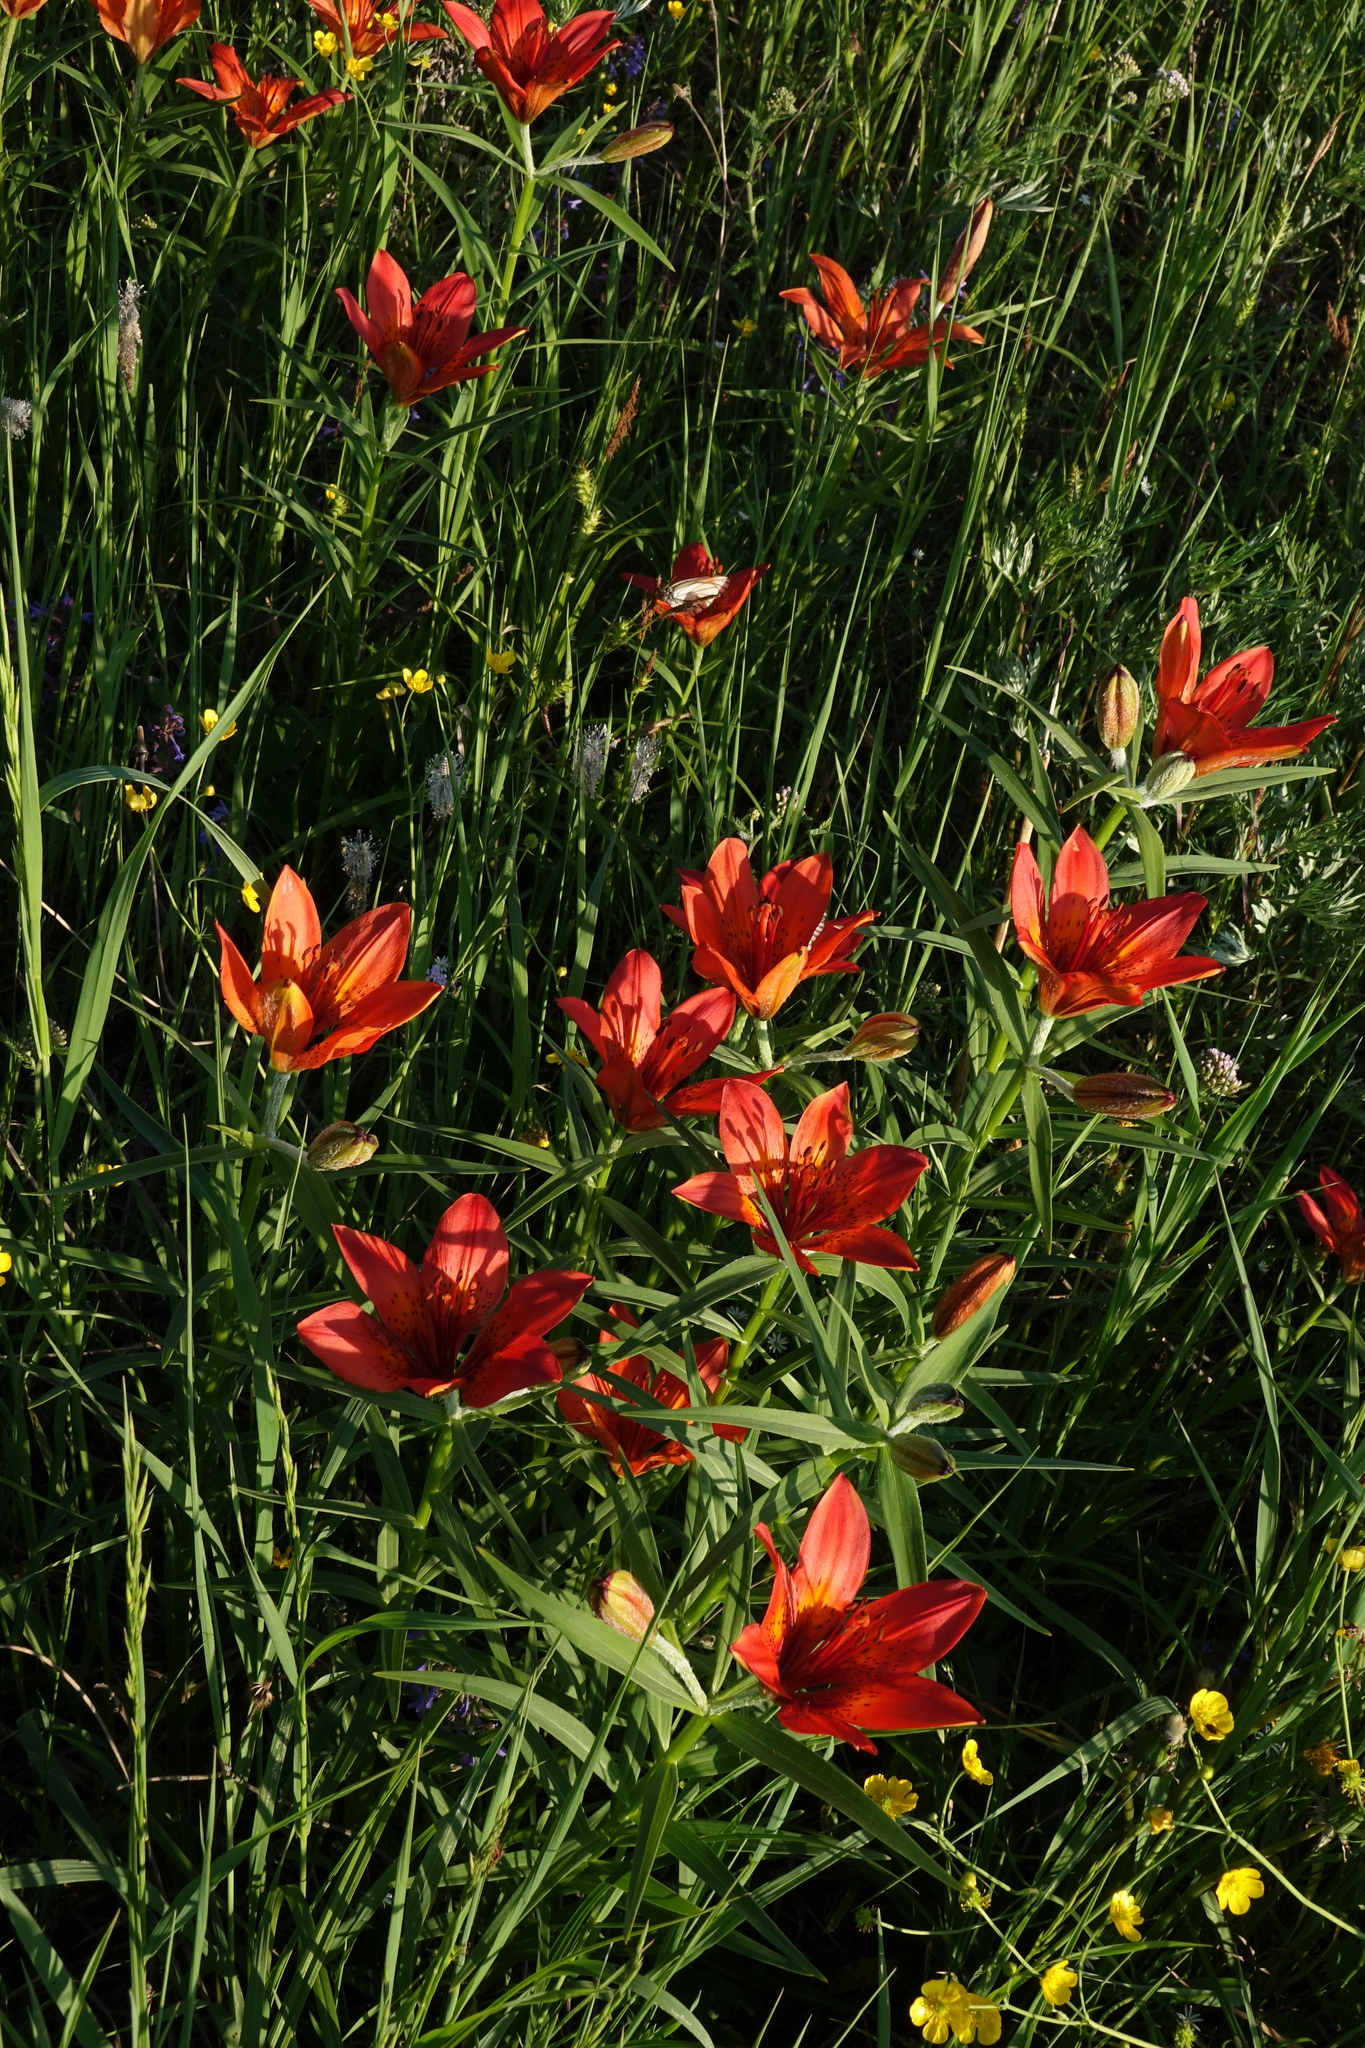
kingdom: Plantae
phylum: Tracheophyta
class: Liliopsida
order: Liliales
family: Liliaceae
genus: Lilium
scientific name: Lilium pensylvanicum
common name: Candlestick lily
